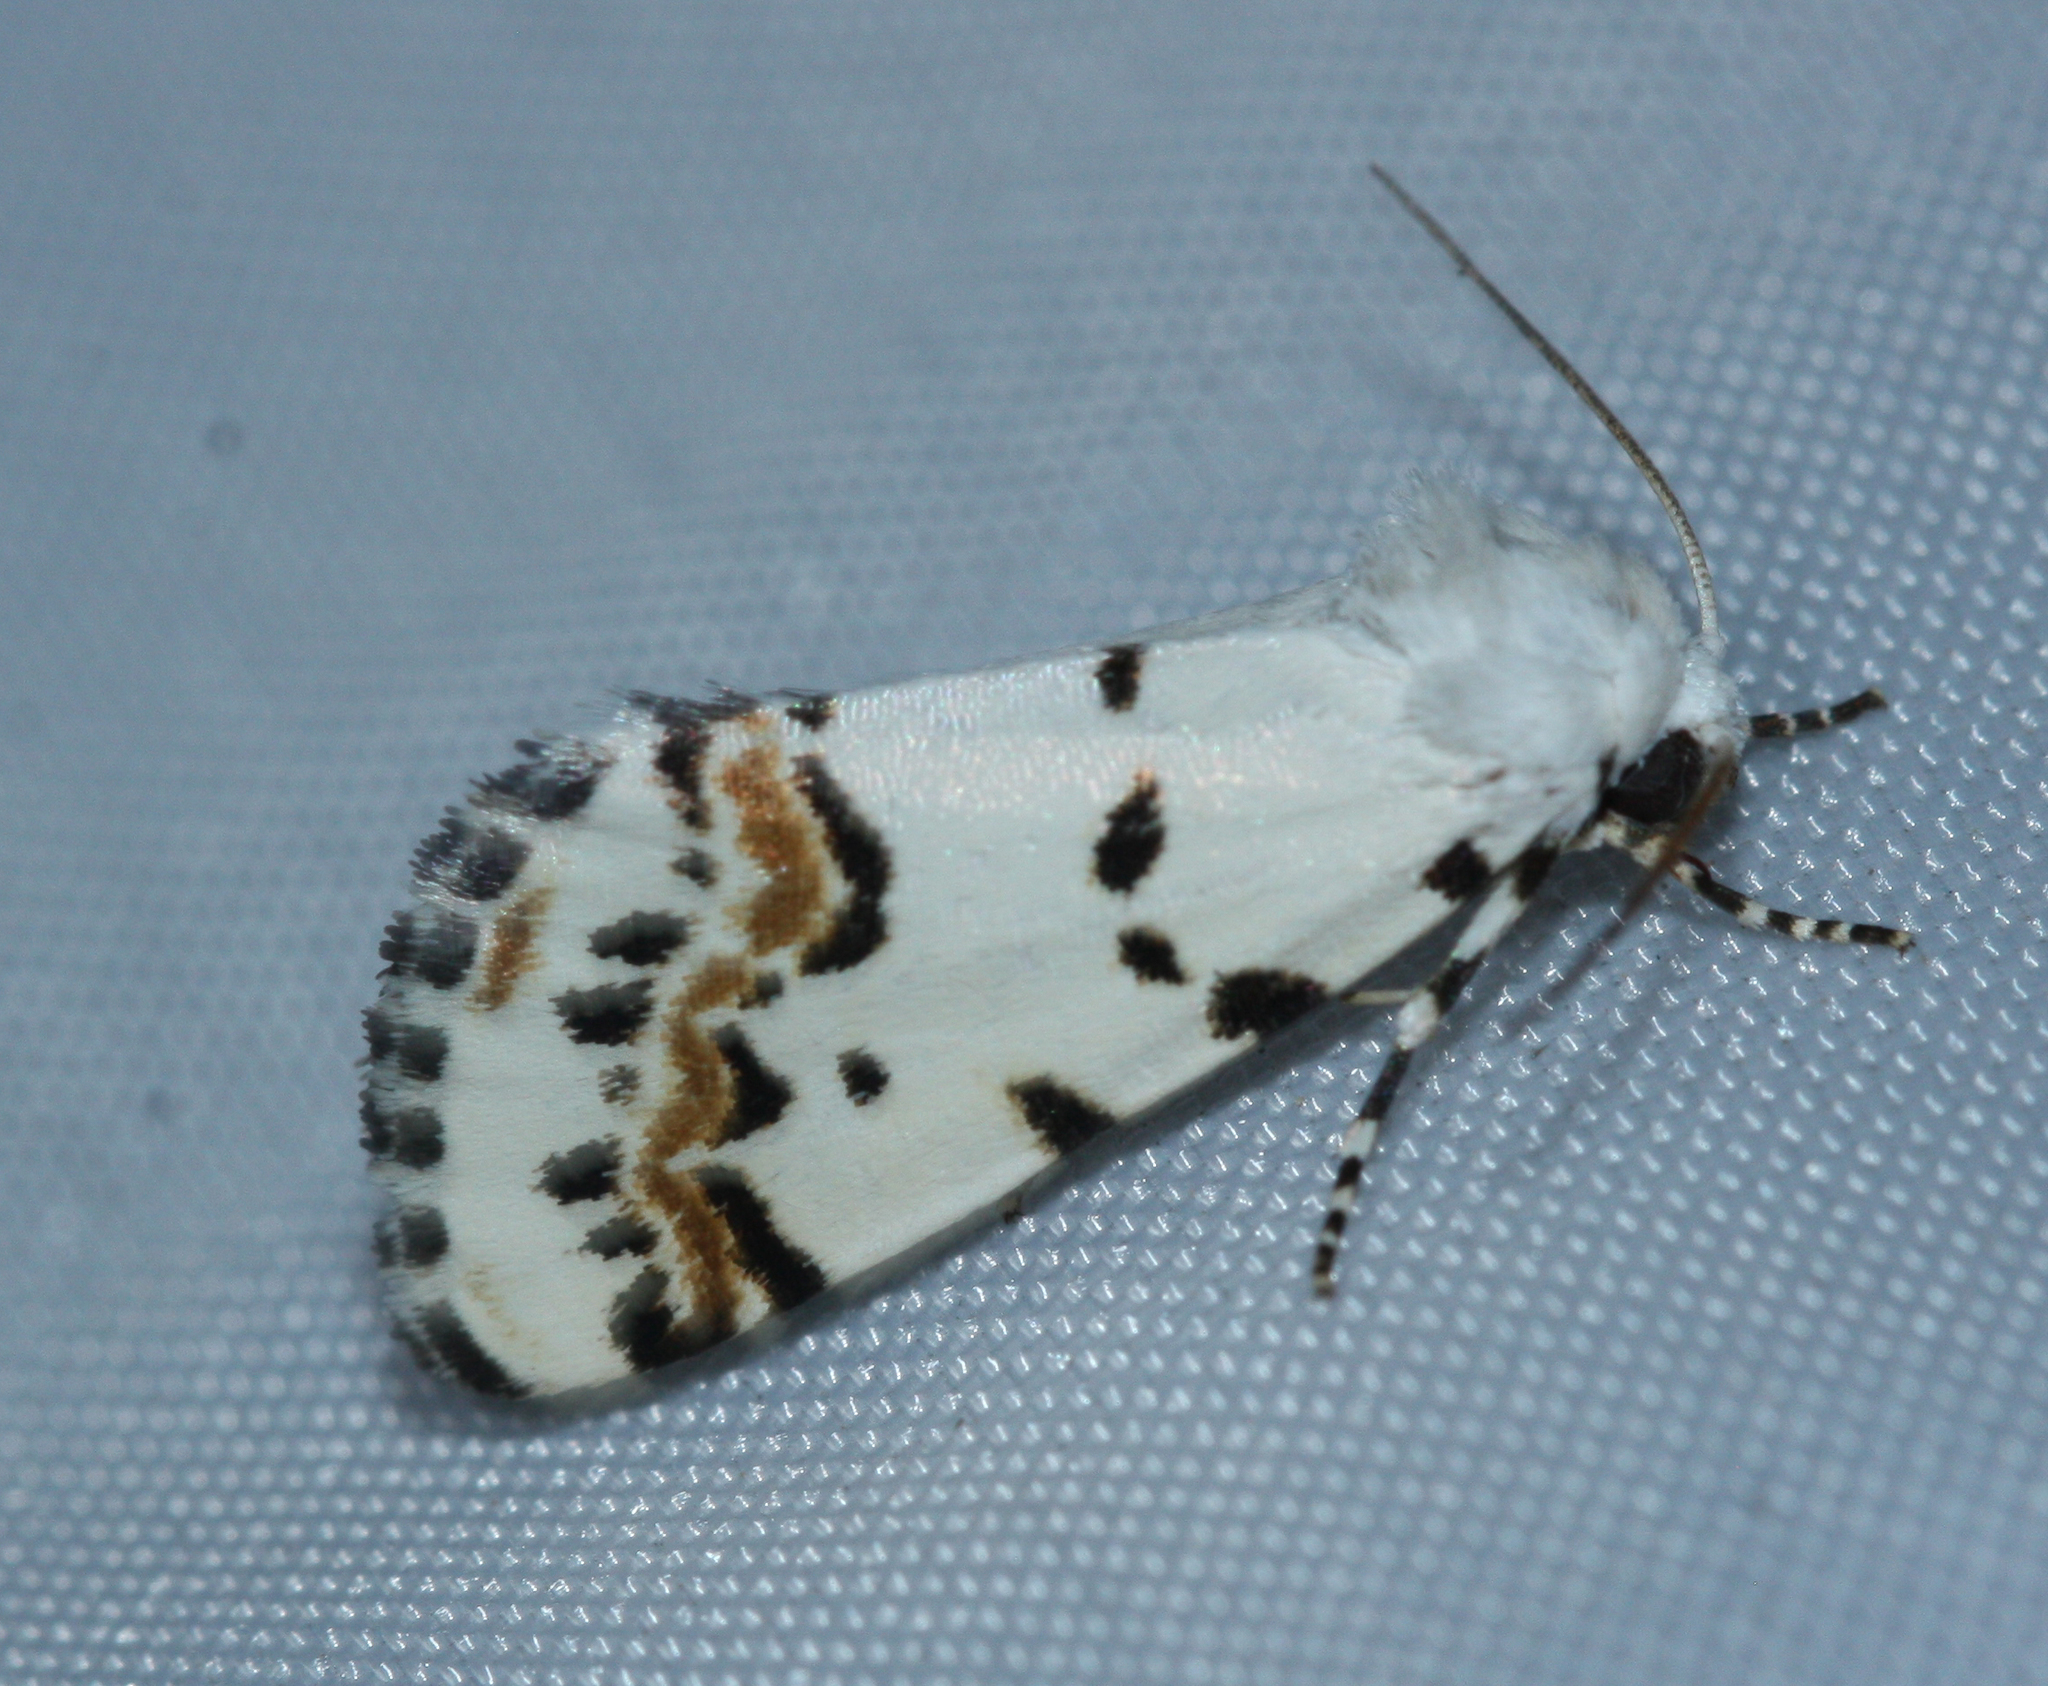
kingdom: Animalia
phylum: Arthropoda
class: Insecta
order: Lepidoptera
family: Noctuidae
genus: Grotella
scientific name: Grotella tricolor
